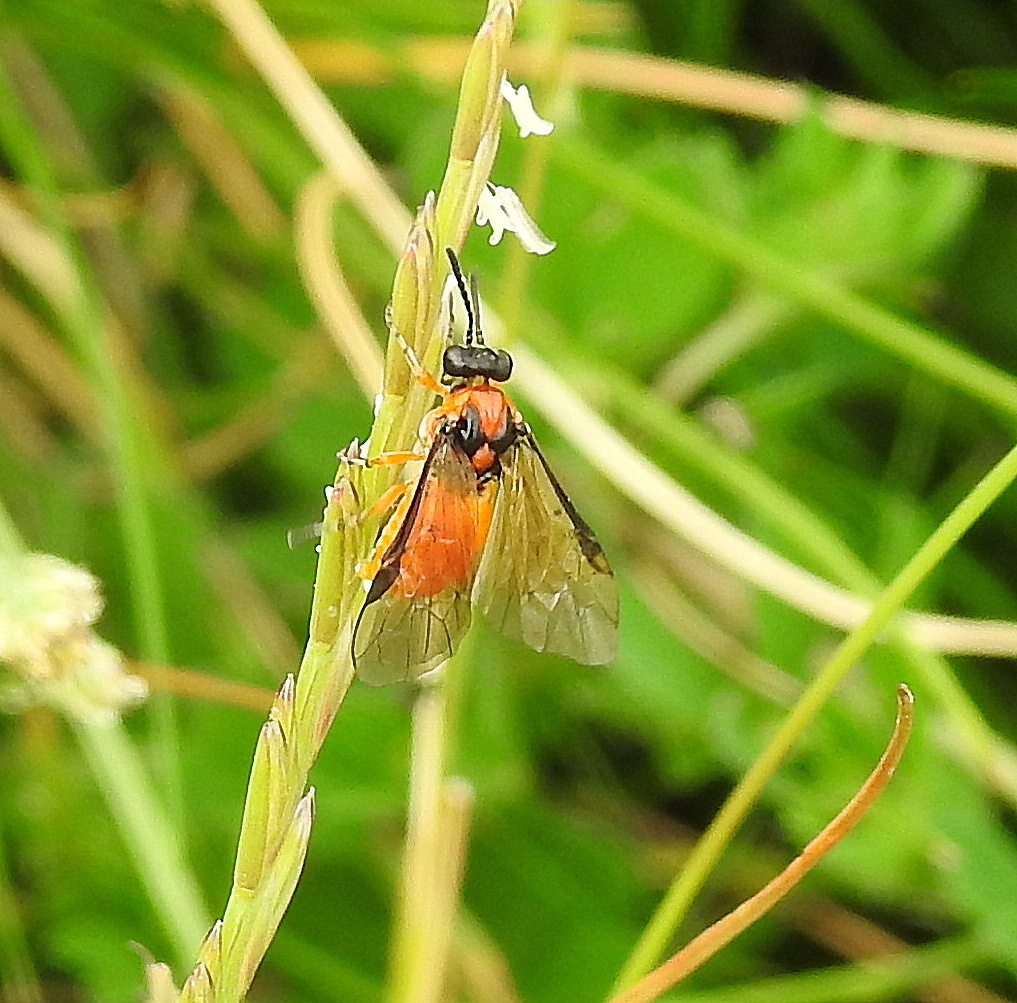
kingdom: Animalia
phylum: Arthropoda
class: Insecta
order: Hymenoptera
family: Tenthredinidae
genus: Athalia
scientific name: Athalia rosae
